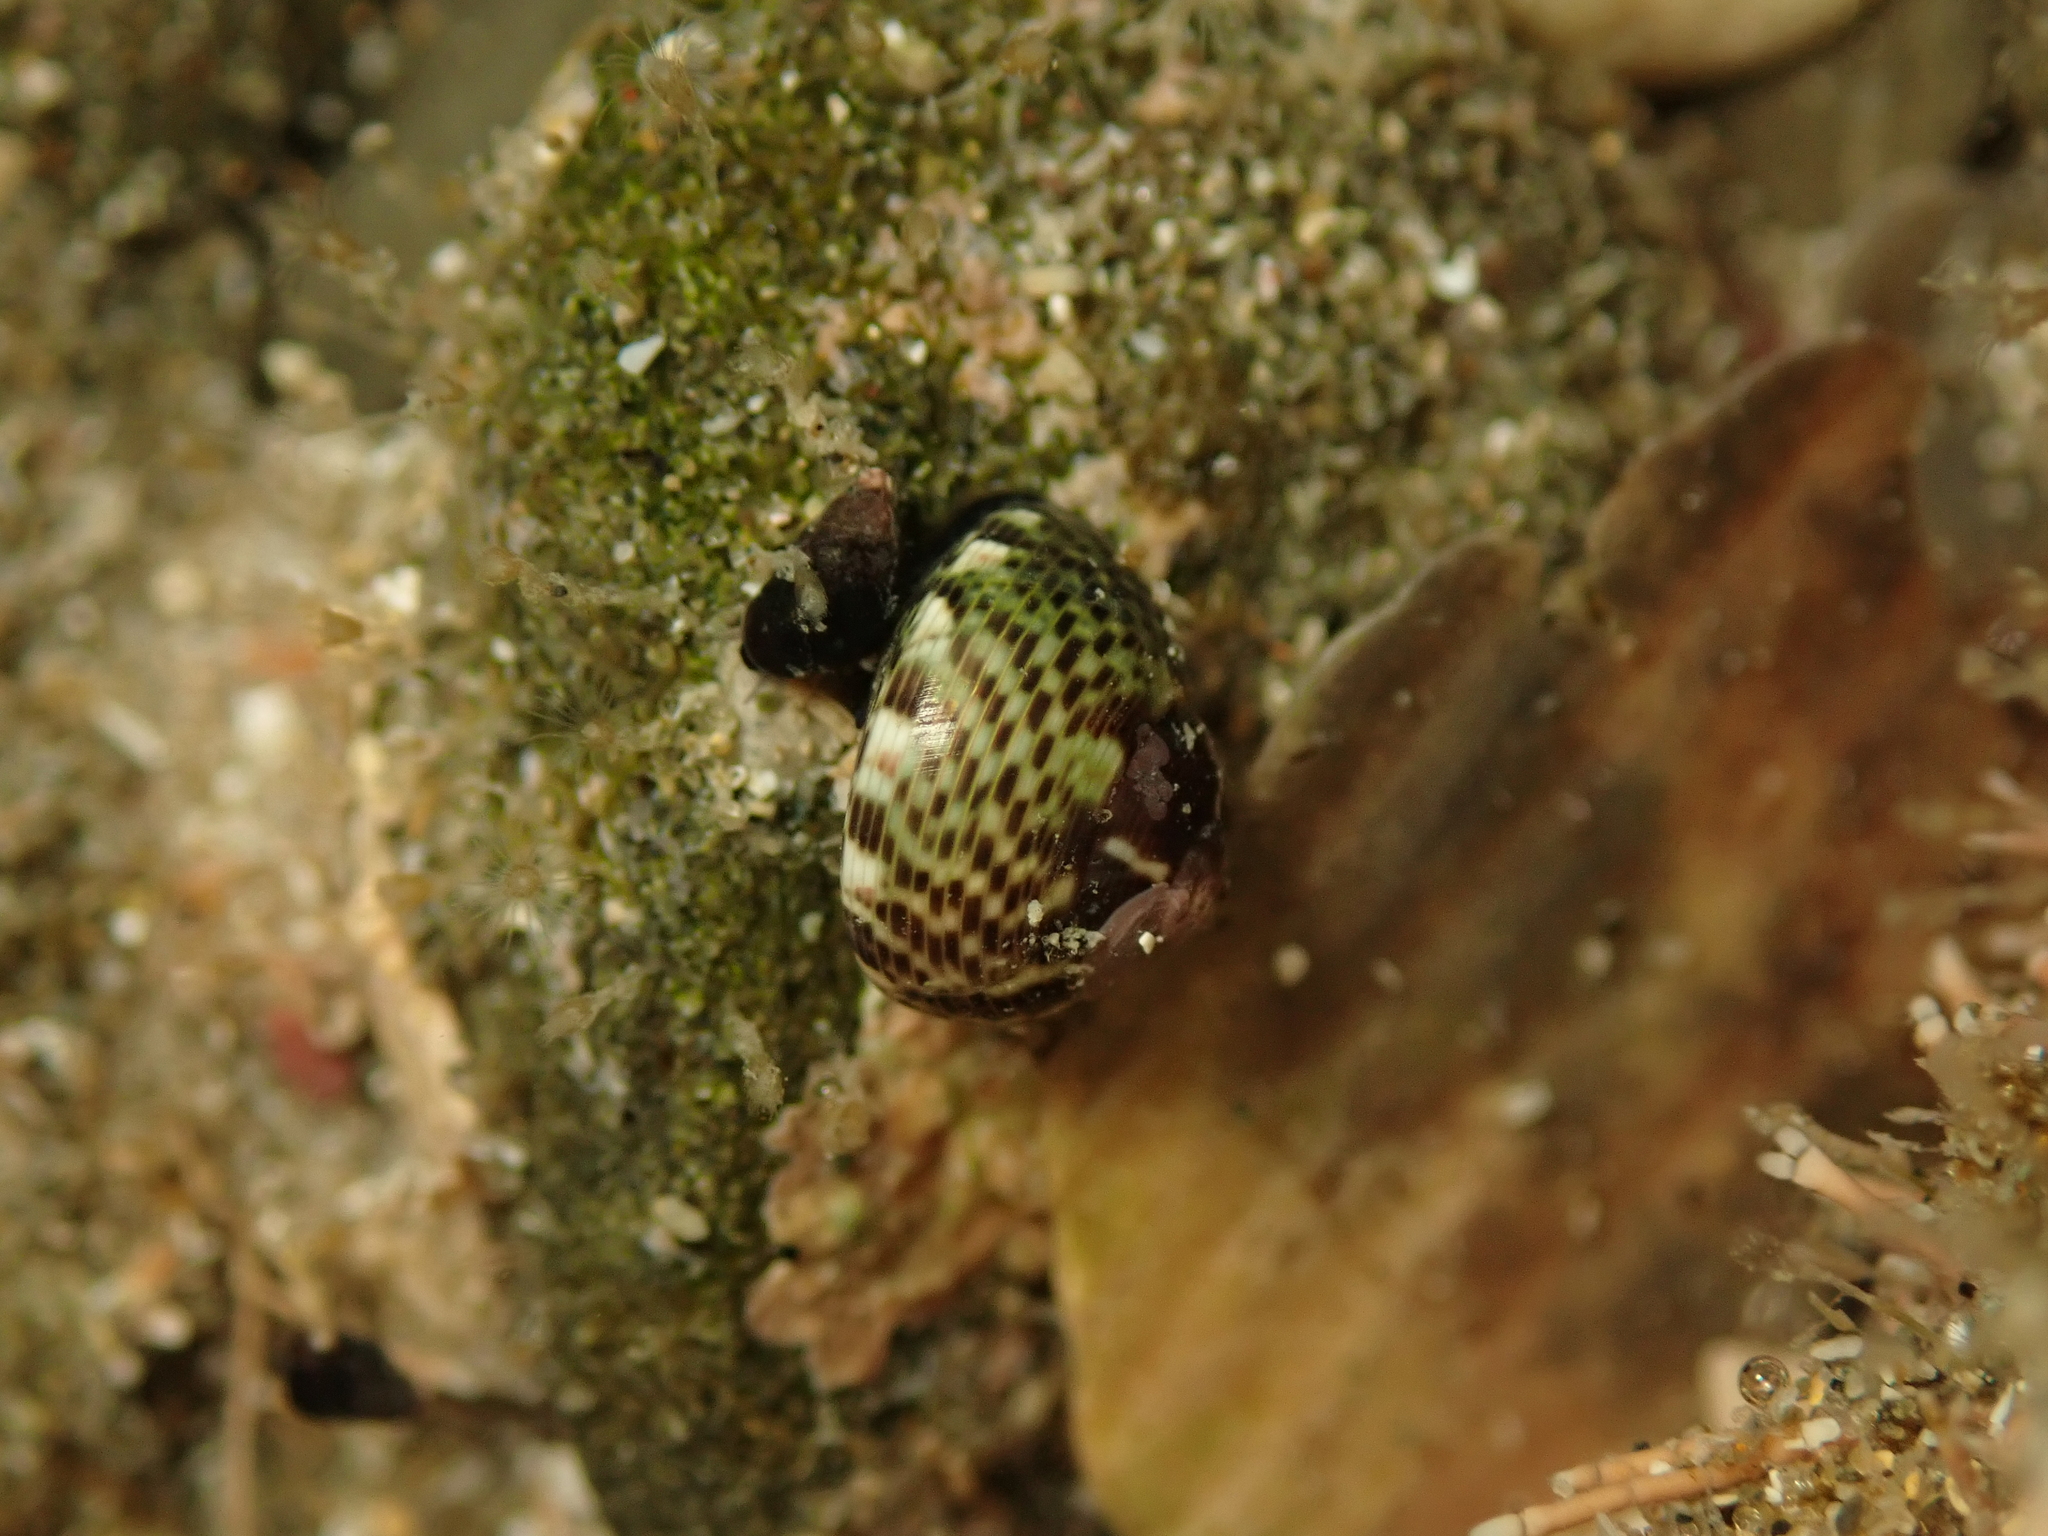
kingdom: Animalia
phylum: Mollusca
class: Gastropoda
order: Trochida
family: Trochidae
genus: Micrelenchus
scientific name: Micrelenchus tessellatus
